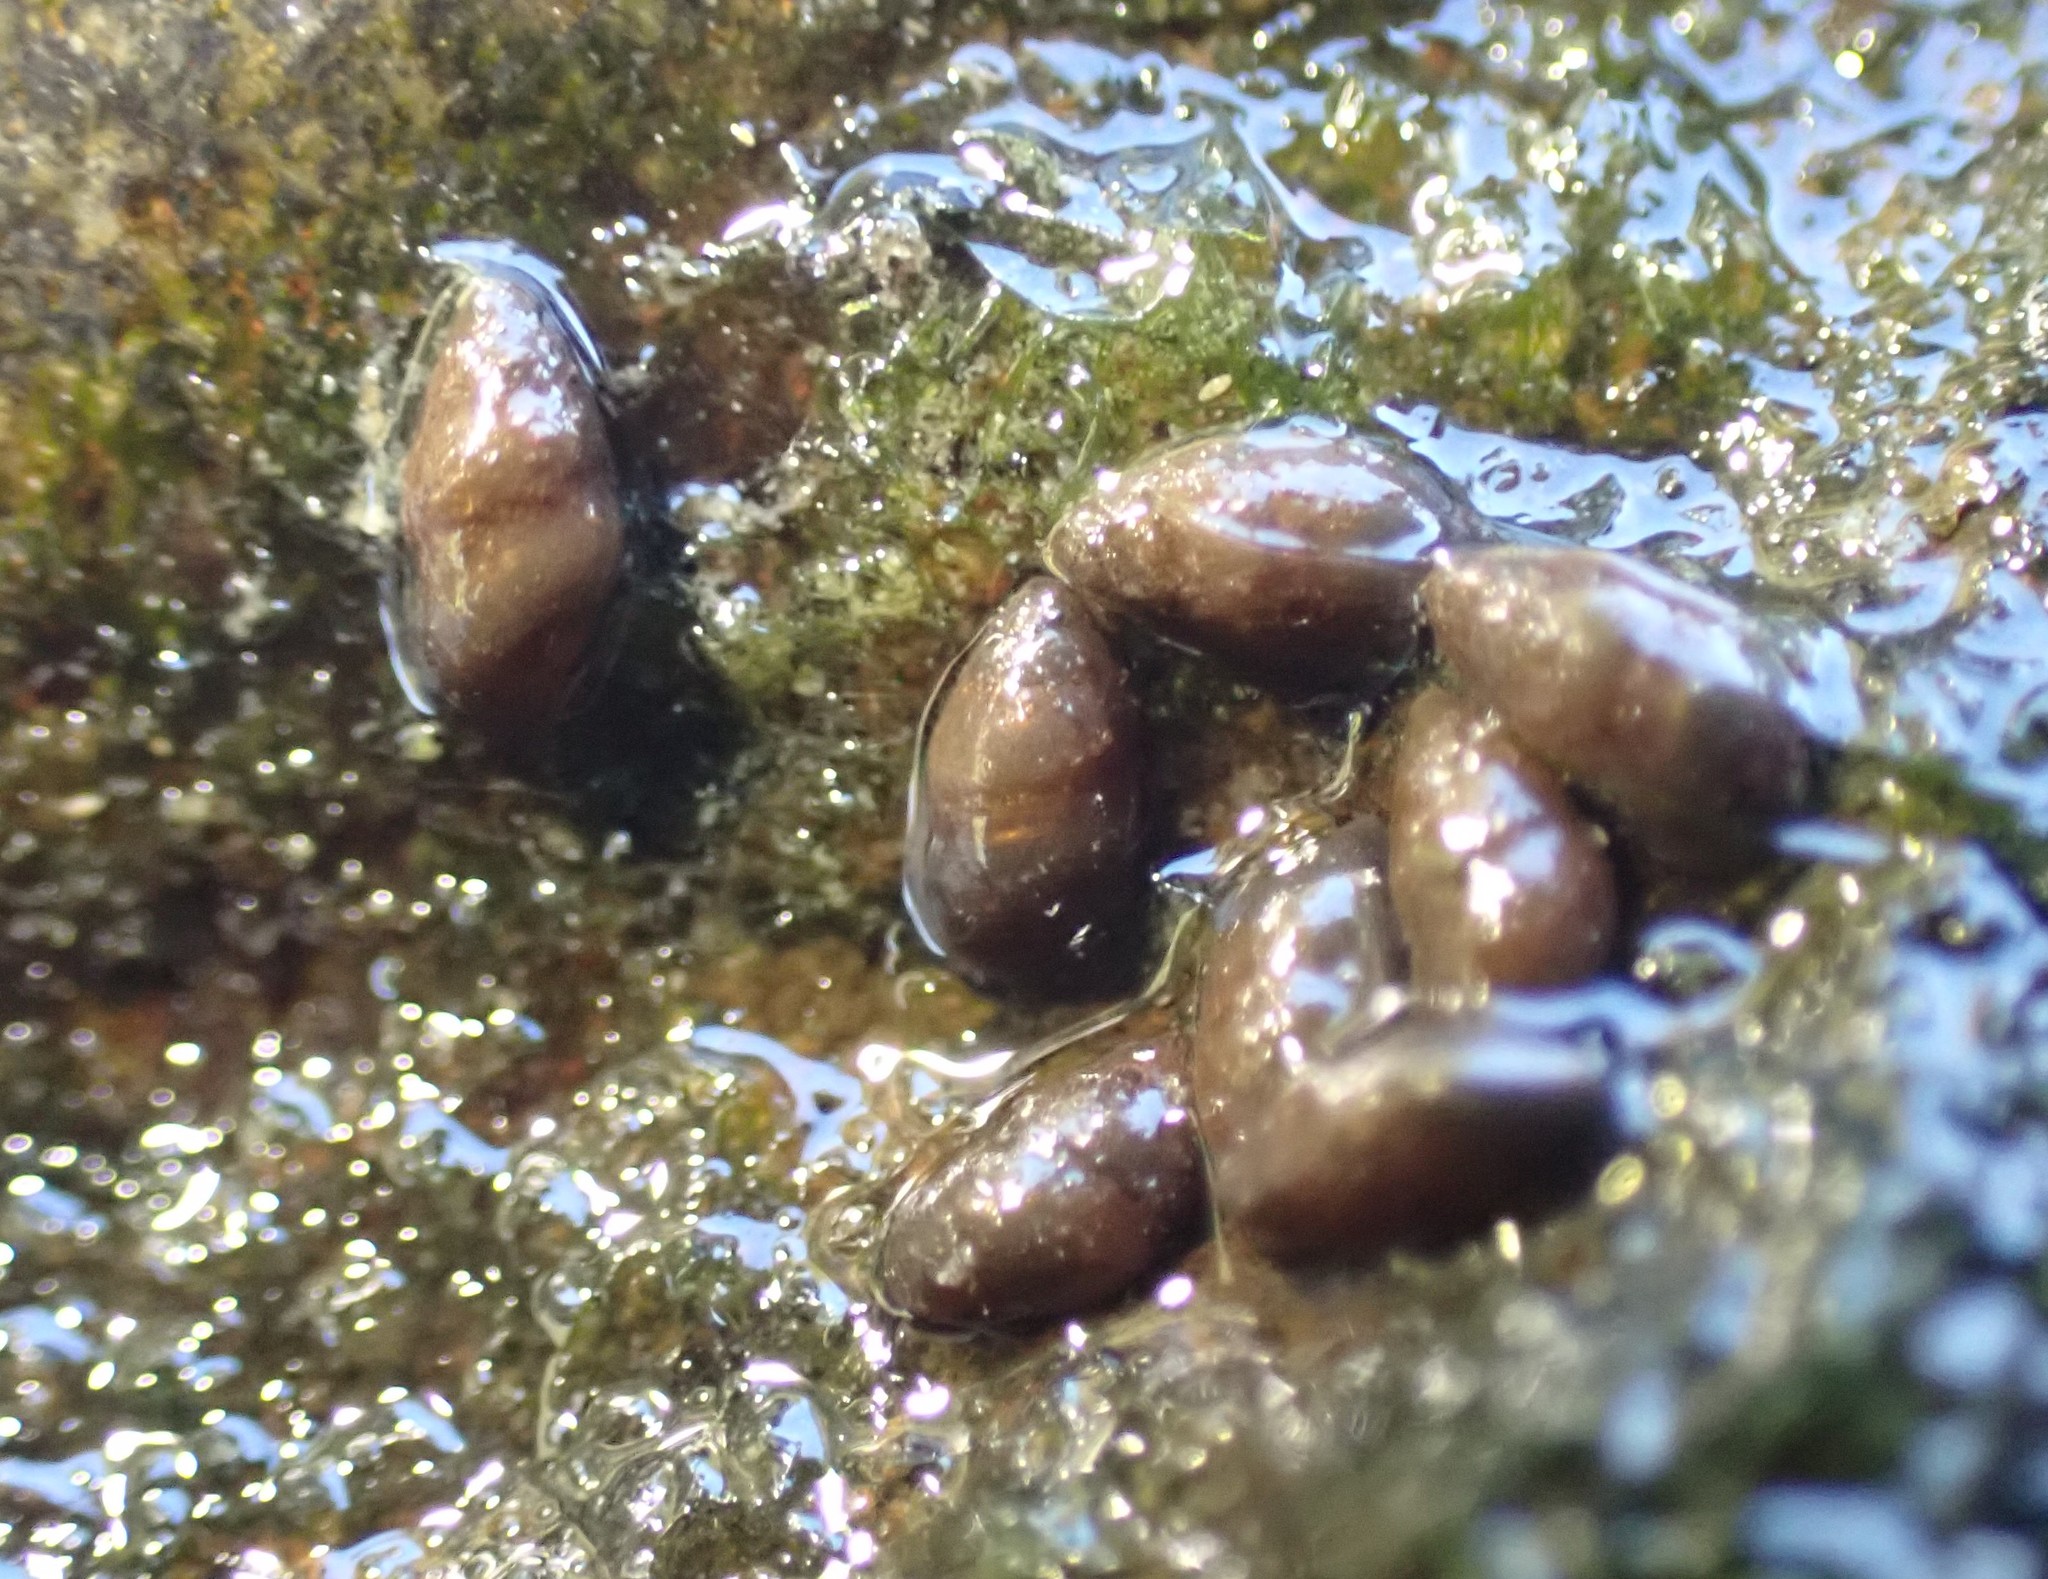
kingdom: Animalia
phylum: Mollusca
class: Gastropoda
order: Littorinimorpha
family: Tateidae
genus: Halopyrgus
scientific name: Halopyrgus pupoides
